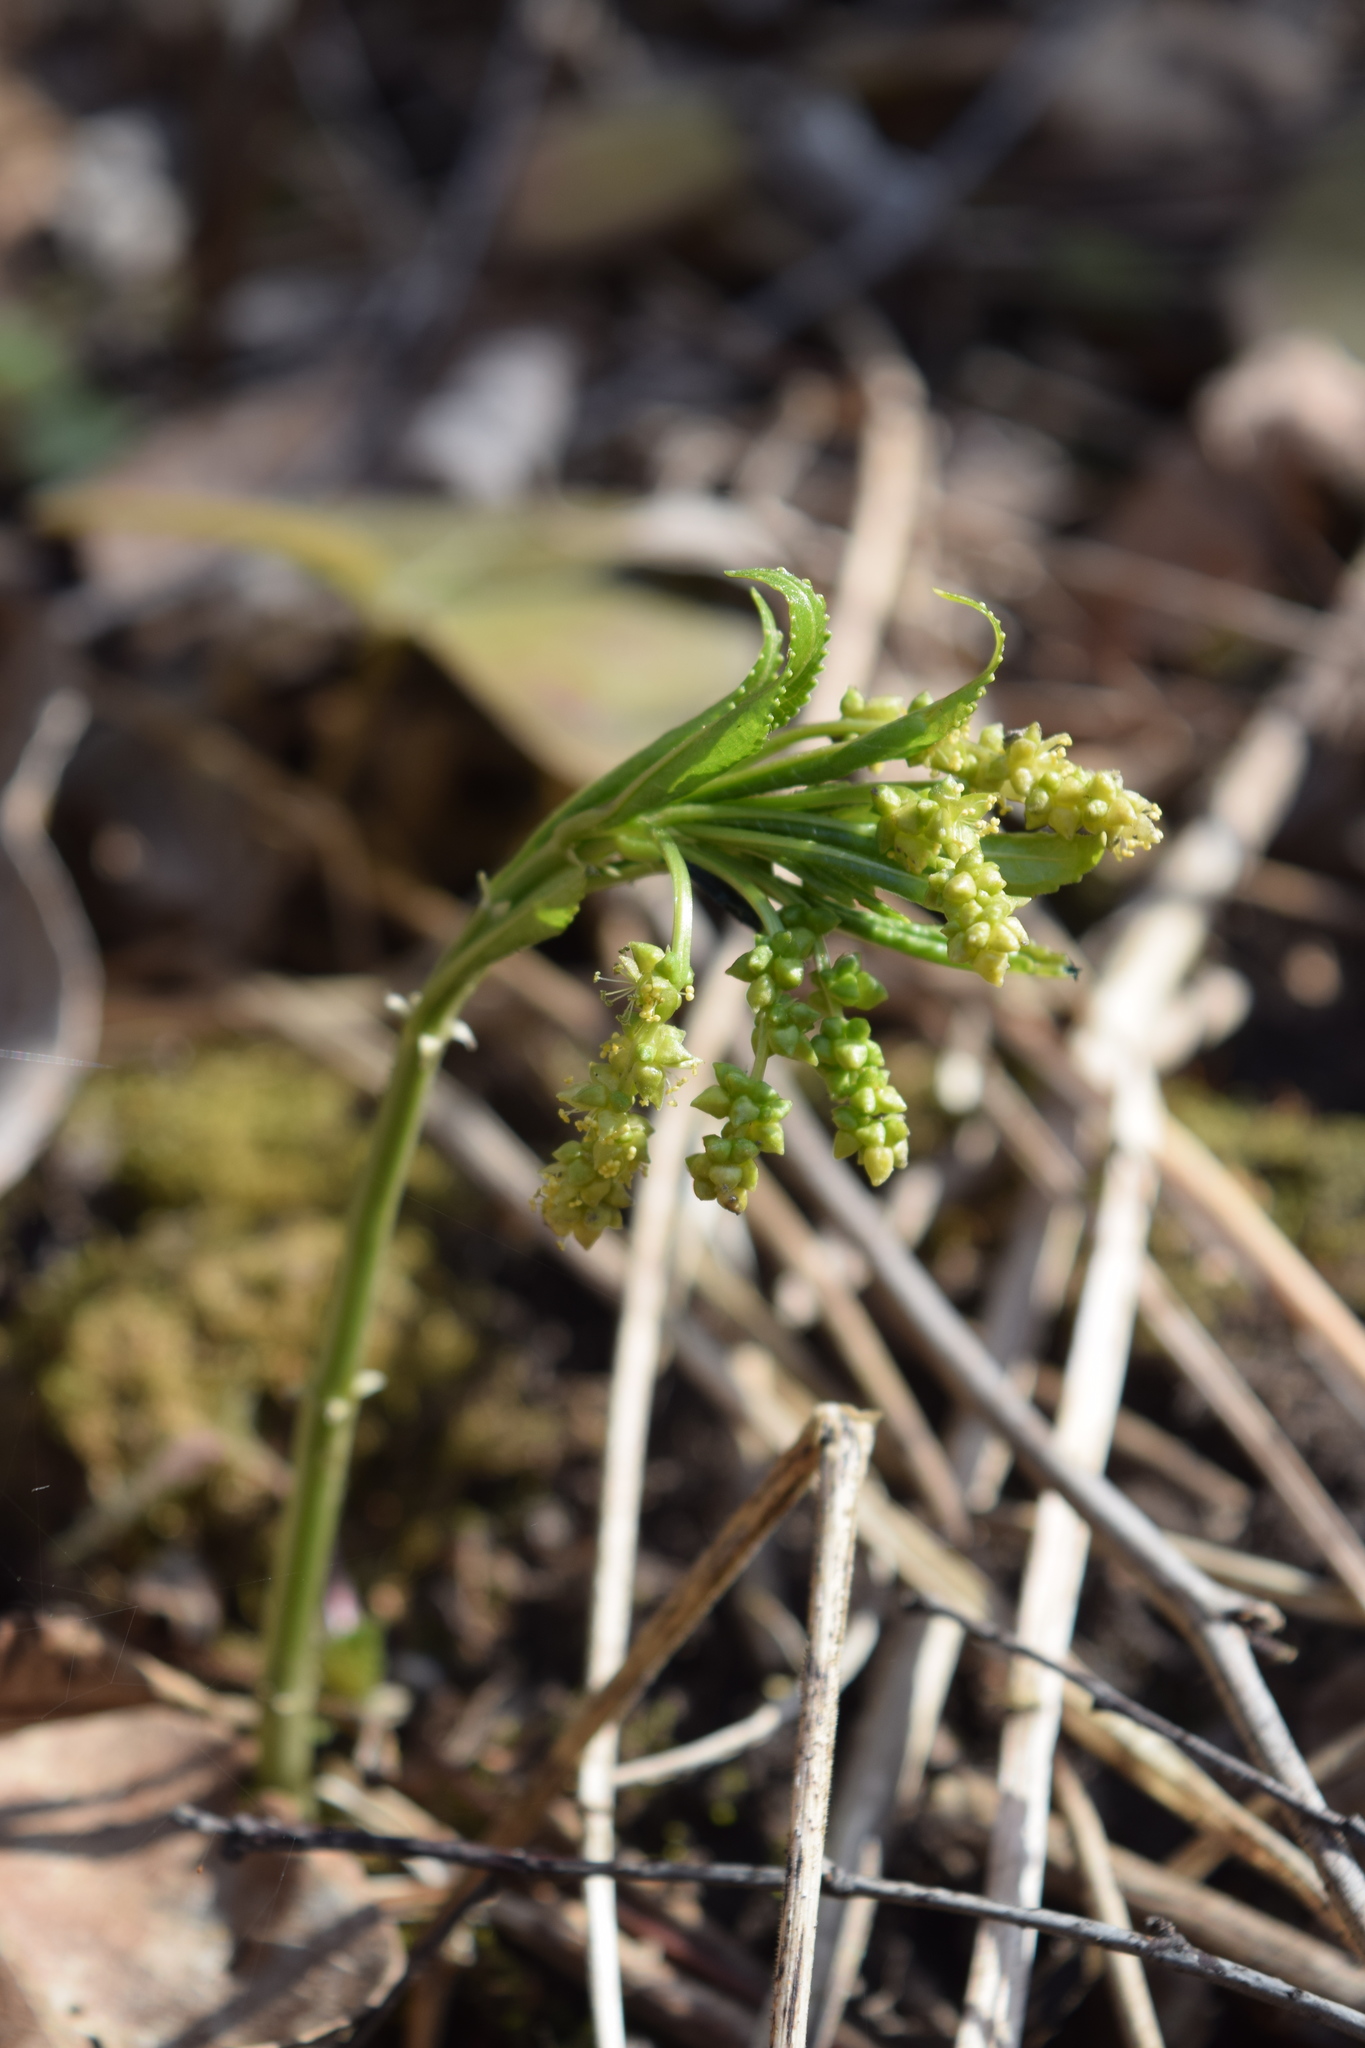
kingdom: Plantae
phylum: Tracheophyta
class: Magnoliopsida
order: Malpighiales
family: Euphorbiaceae
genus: Mercurialis
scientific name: Mercurialis perennis
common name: Dog mercury
